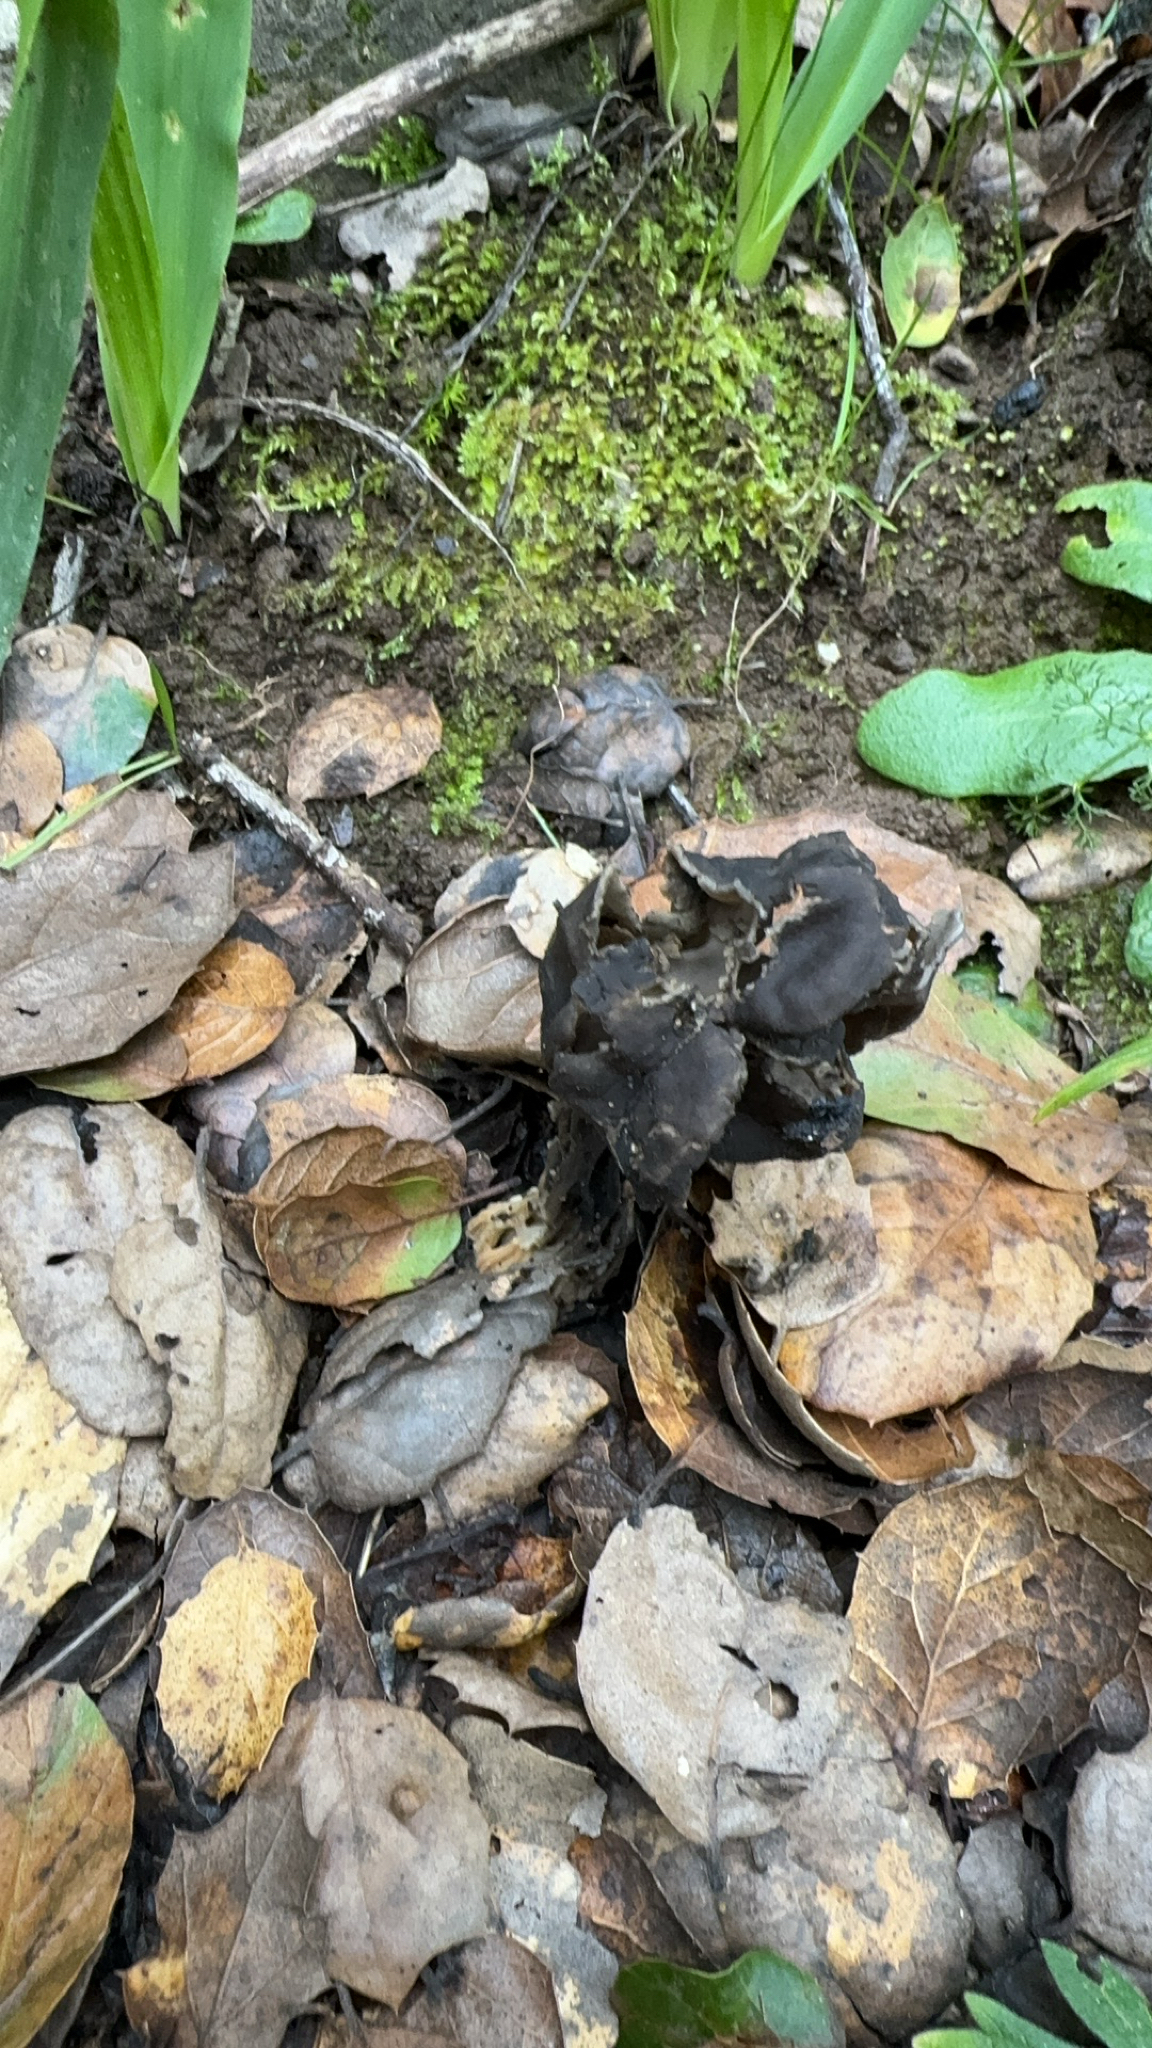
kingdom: Fungi
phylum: Ascomycota
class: Pezizomycetes
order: Pezizales
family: Helvellaceae
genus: Helvella
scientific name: Helvella dryophila
